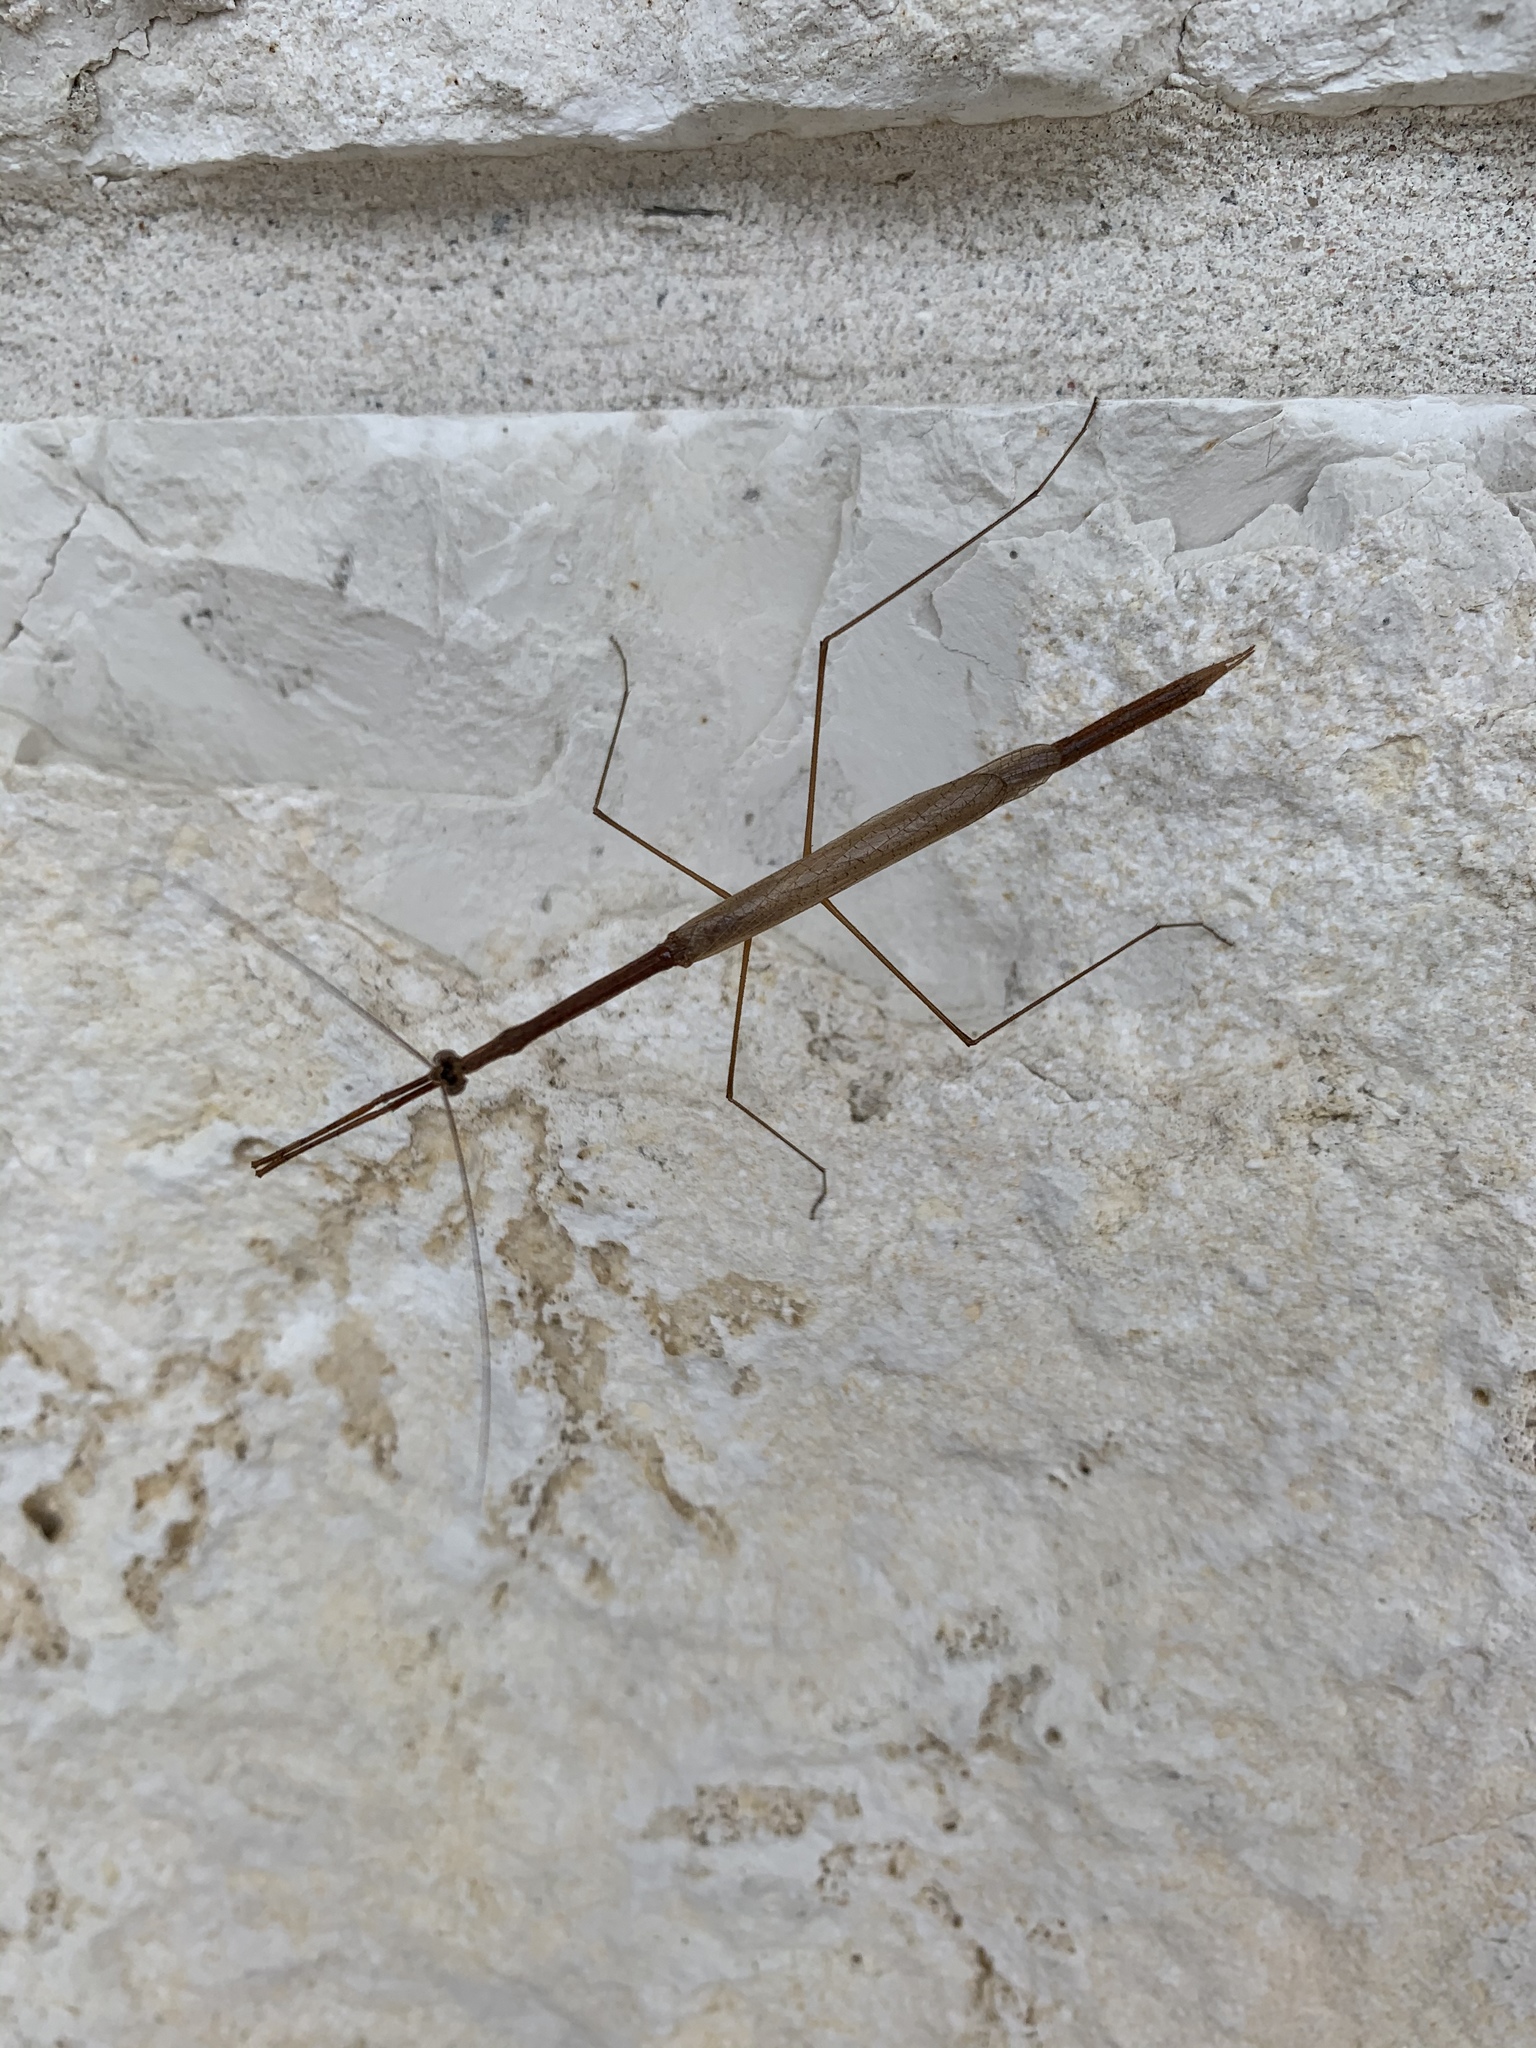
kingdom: Animalia
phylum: Arthropoda
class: Insecta
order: Mantodea
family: Thespidae
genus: Thesprotia
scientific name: Thesprotia graminis
